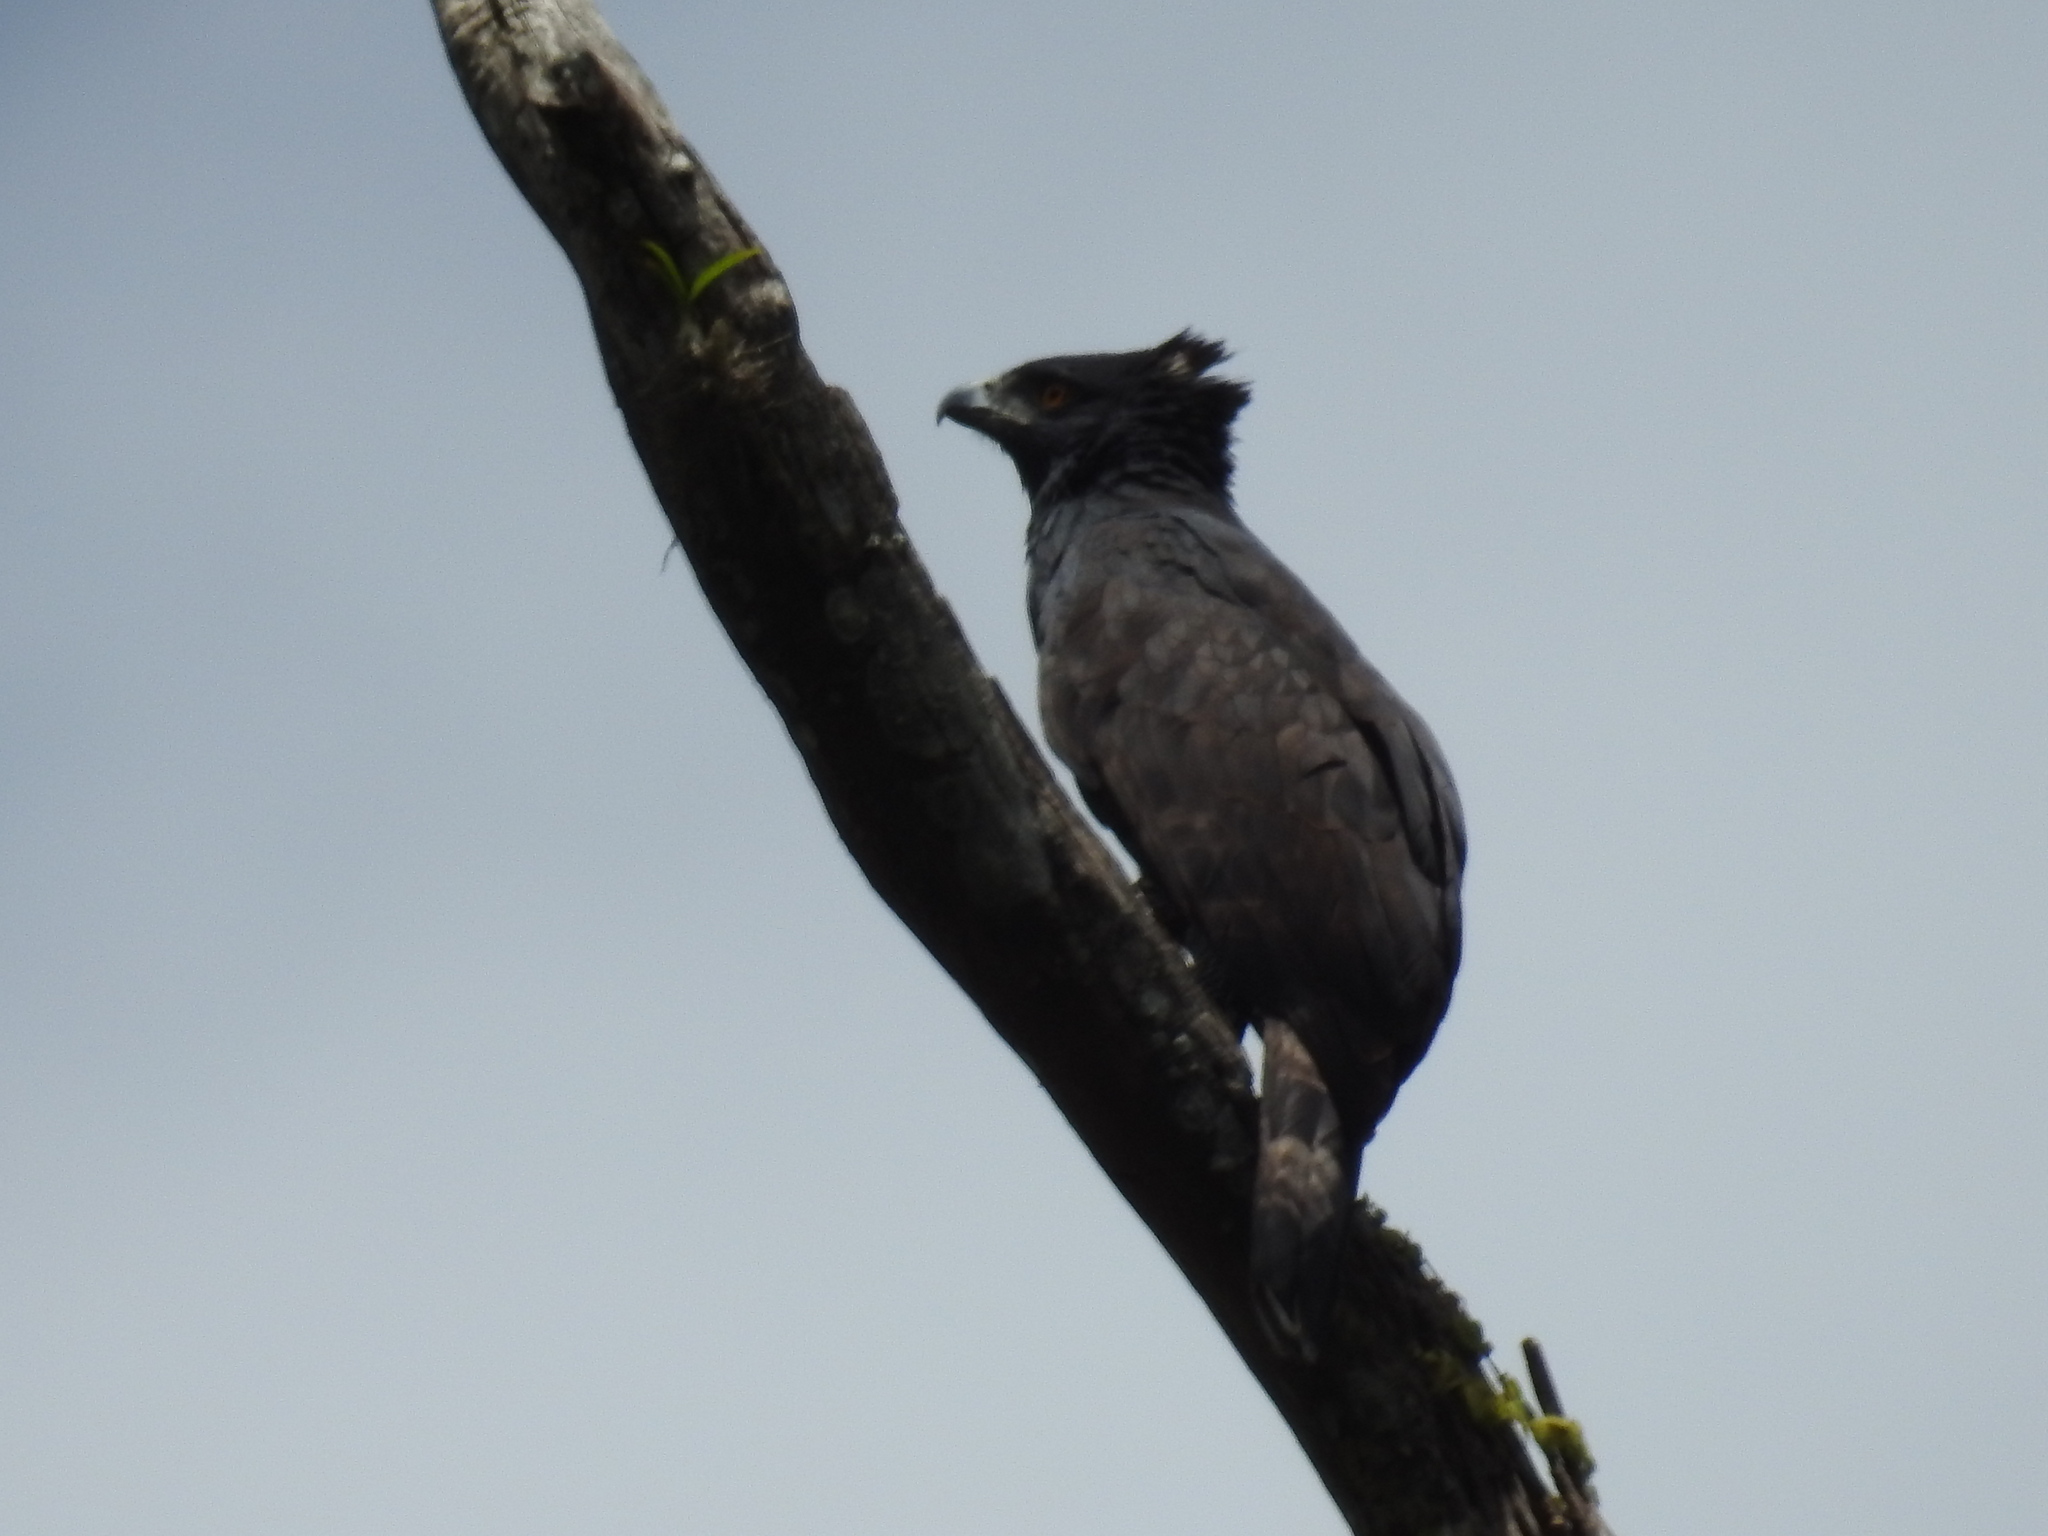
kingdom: Animalia
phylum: Chordata
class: Aves
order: Accipitriformes
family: Accipitridae
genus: Spizaetus
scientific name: Spizaetus tyrannus
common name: Black hawk-eagle
